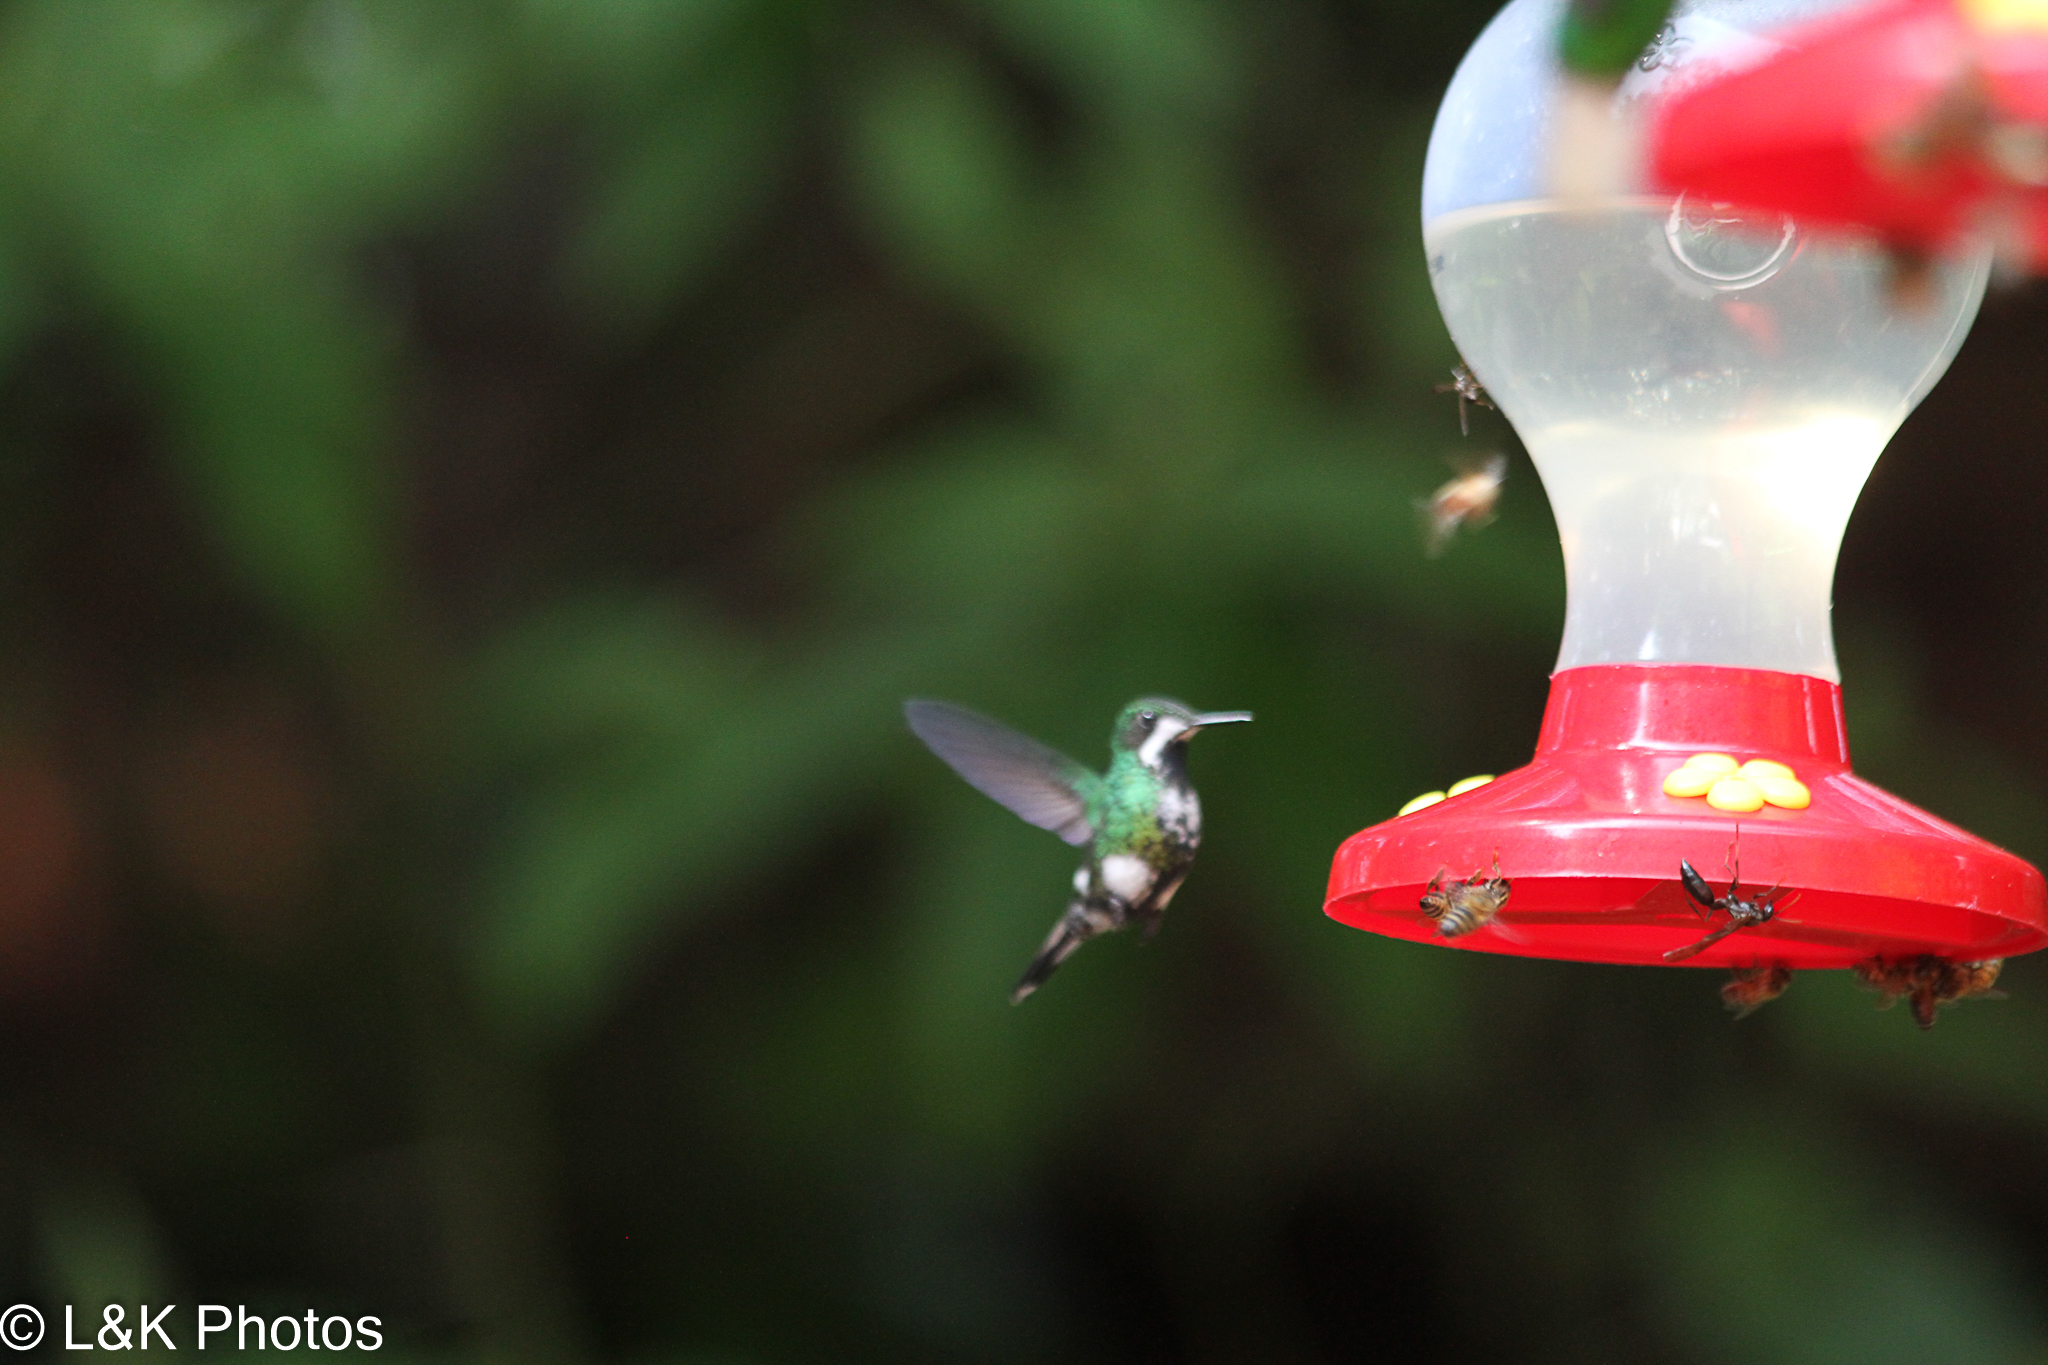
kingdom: Animalia
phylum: Chordata
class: Aves
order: Apodiformes
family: Trochilidae
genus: Discosura
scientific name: Discosura conversii
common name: Green thorntail
